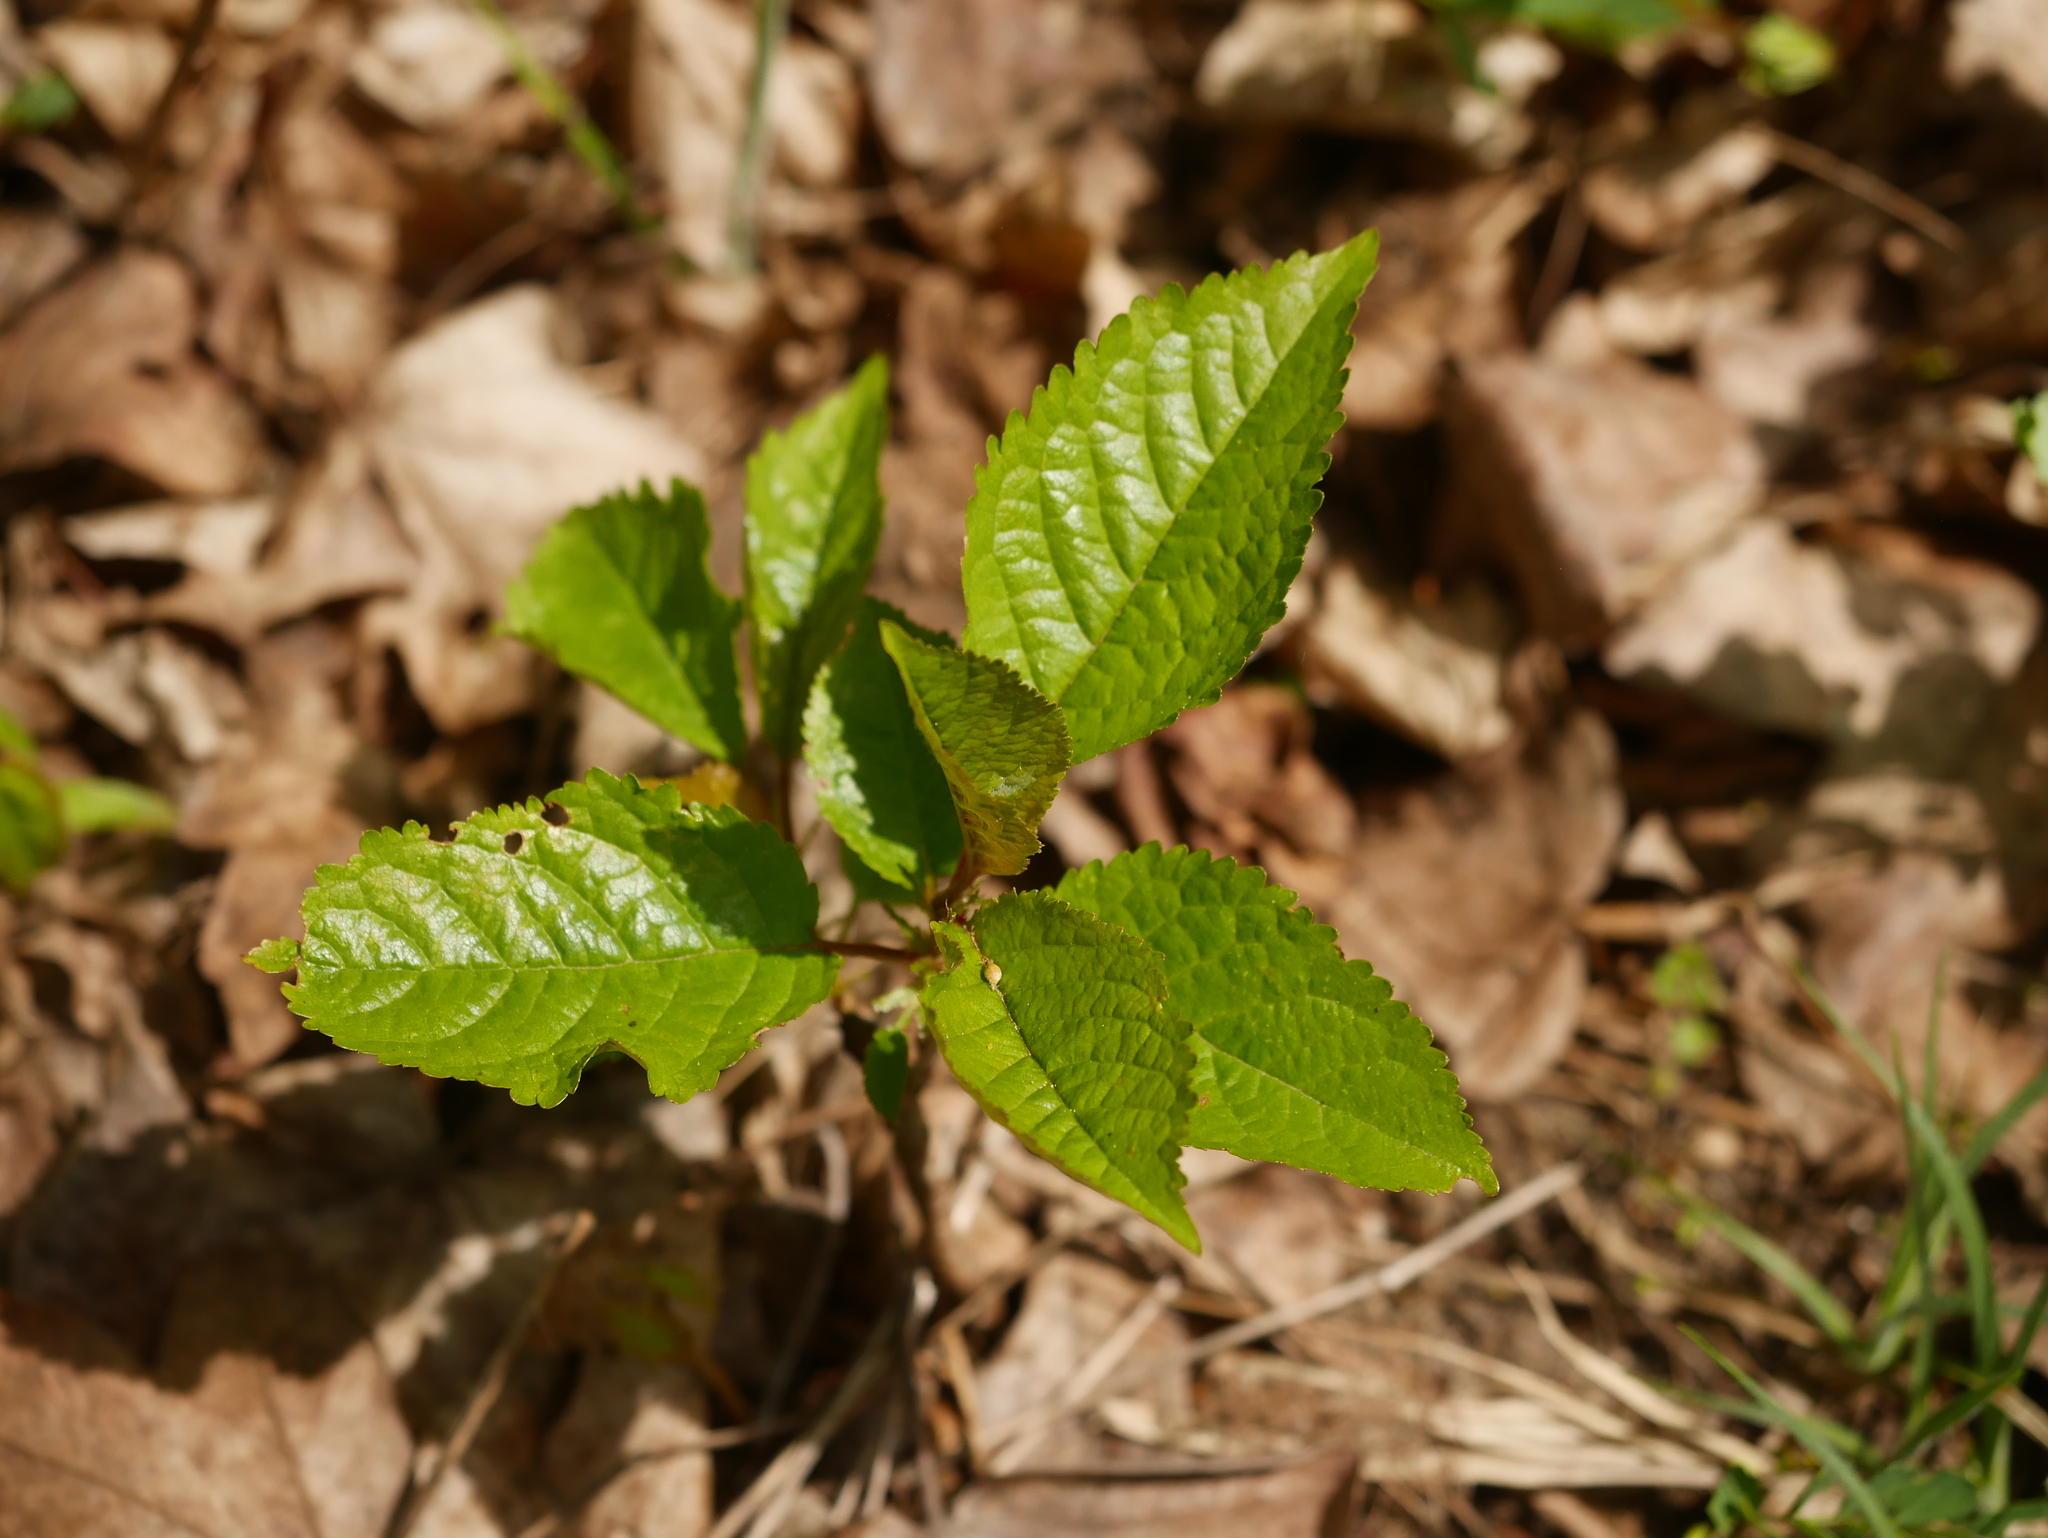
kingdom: Plantae
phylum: Tracheophyta
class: Magnoliopsida
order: Rosales
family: Rosaceae
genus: Prunus
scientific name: Prunus avium
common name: Sweet cherry
